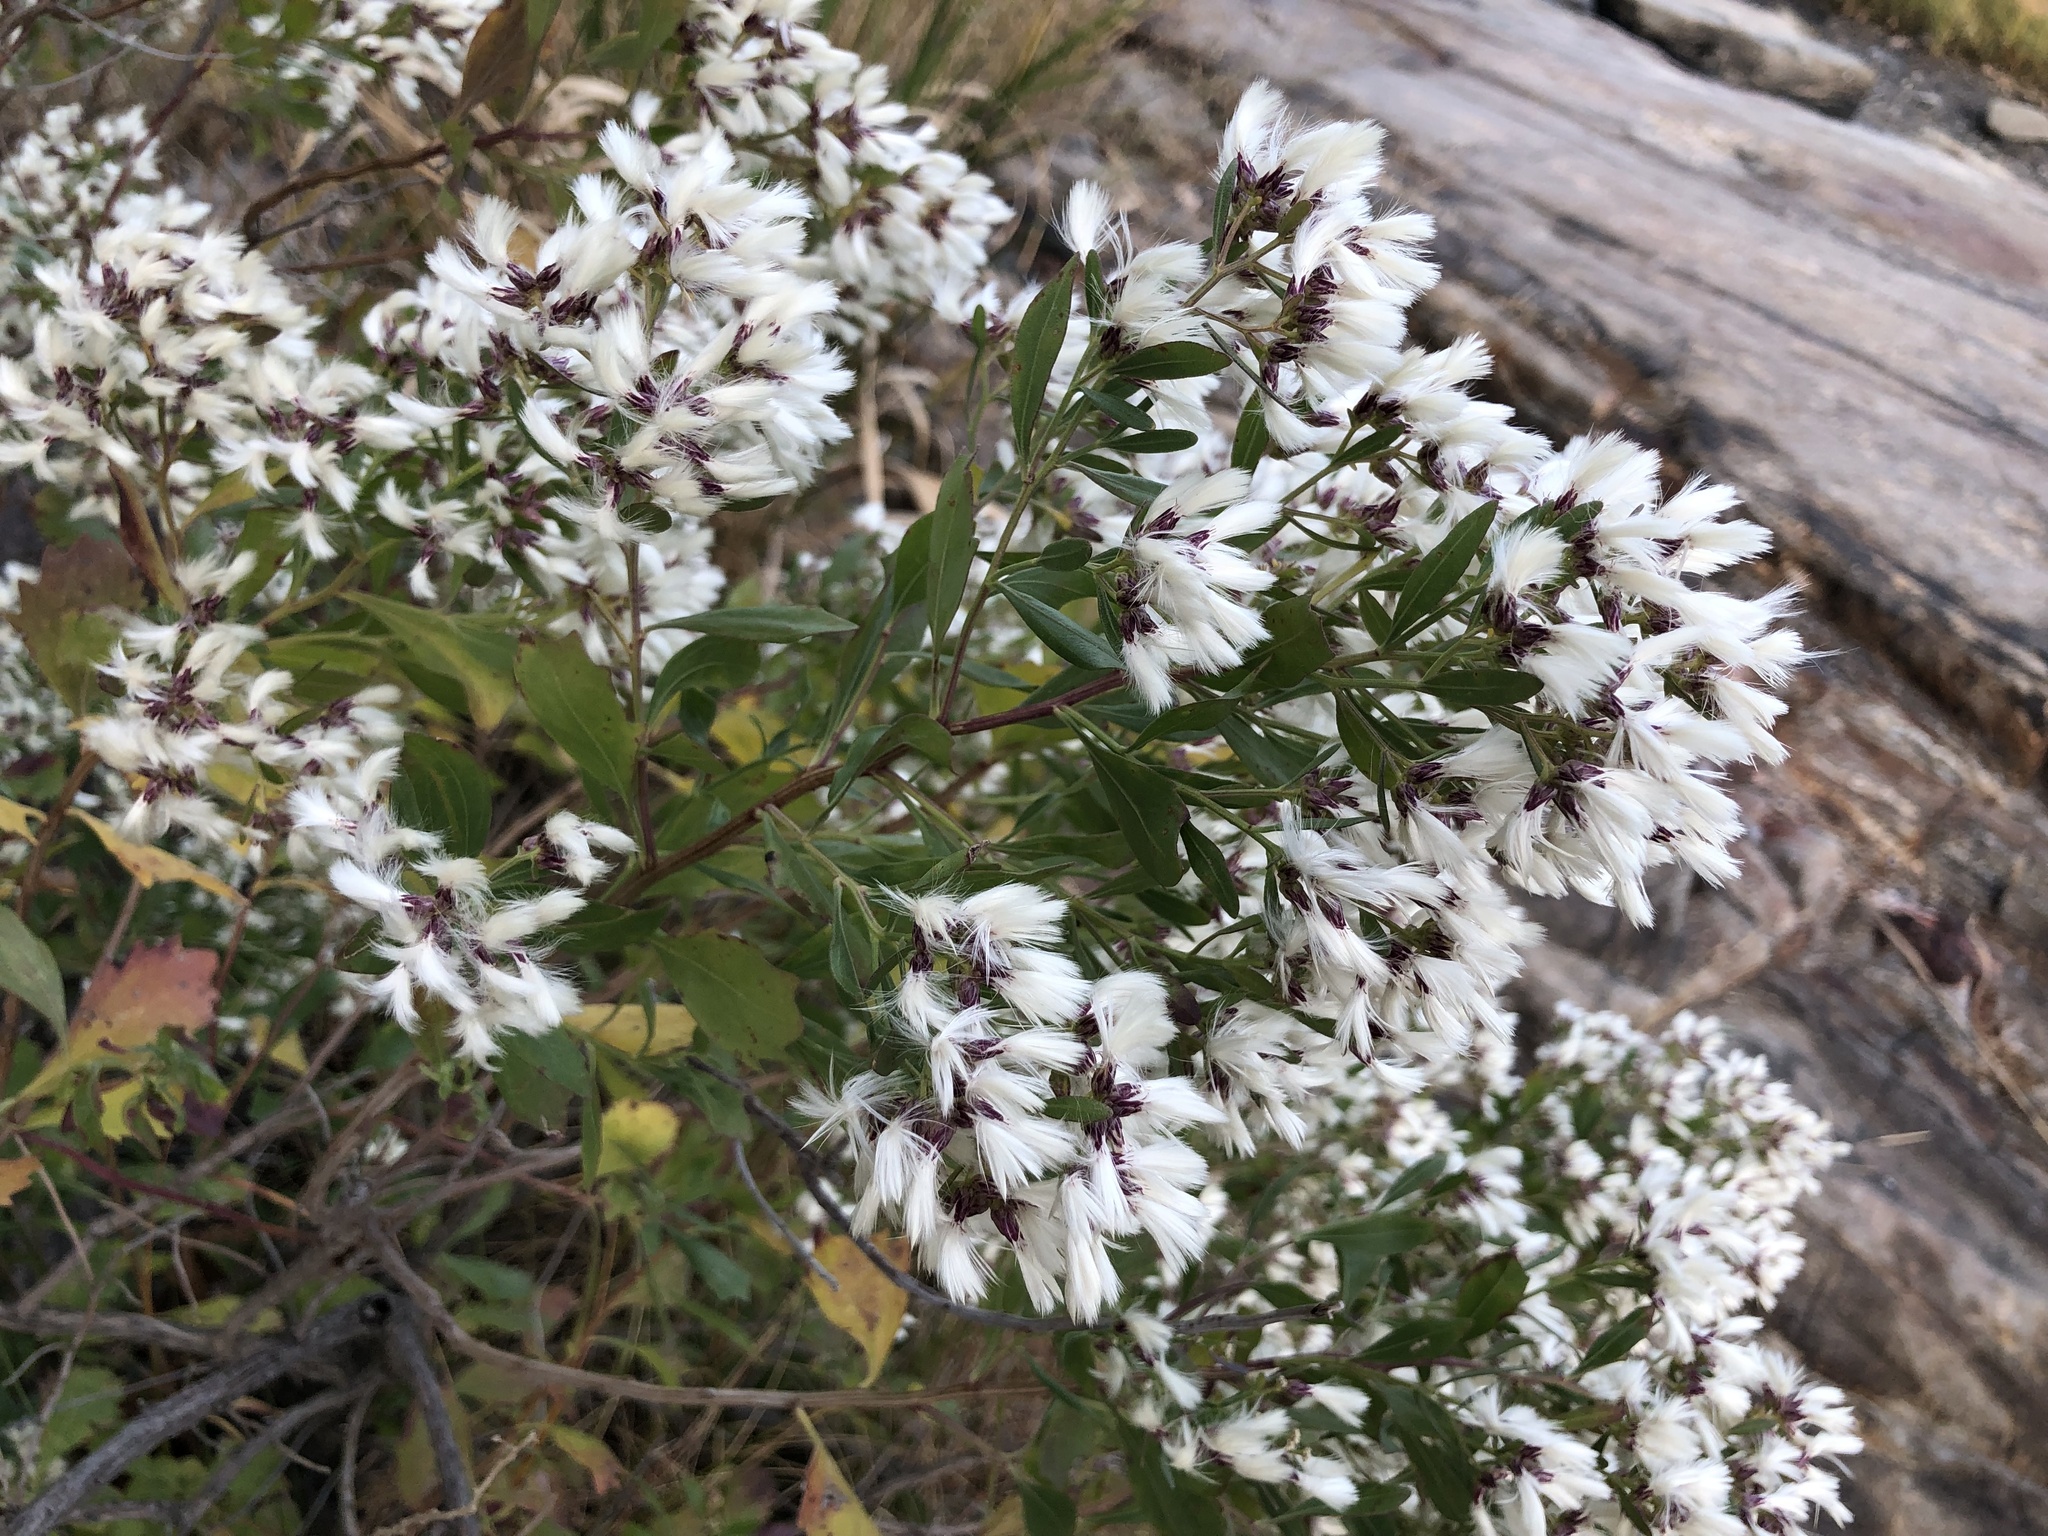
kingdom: Plantae
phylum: Tracheophyta
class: Magnoliopsida
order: Asterales
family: Asteraceae
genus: Baccharis
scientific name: Baccharis halimifolia
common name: Eastern baccharis
